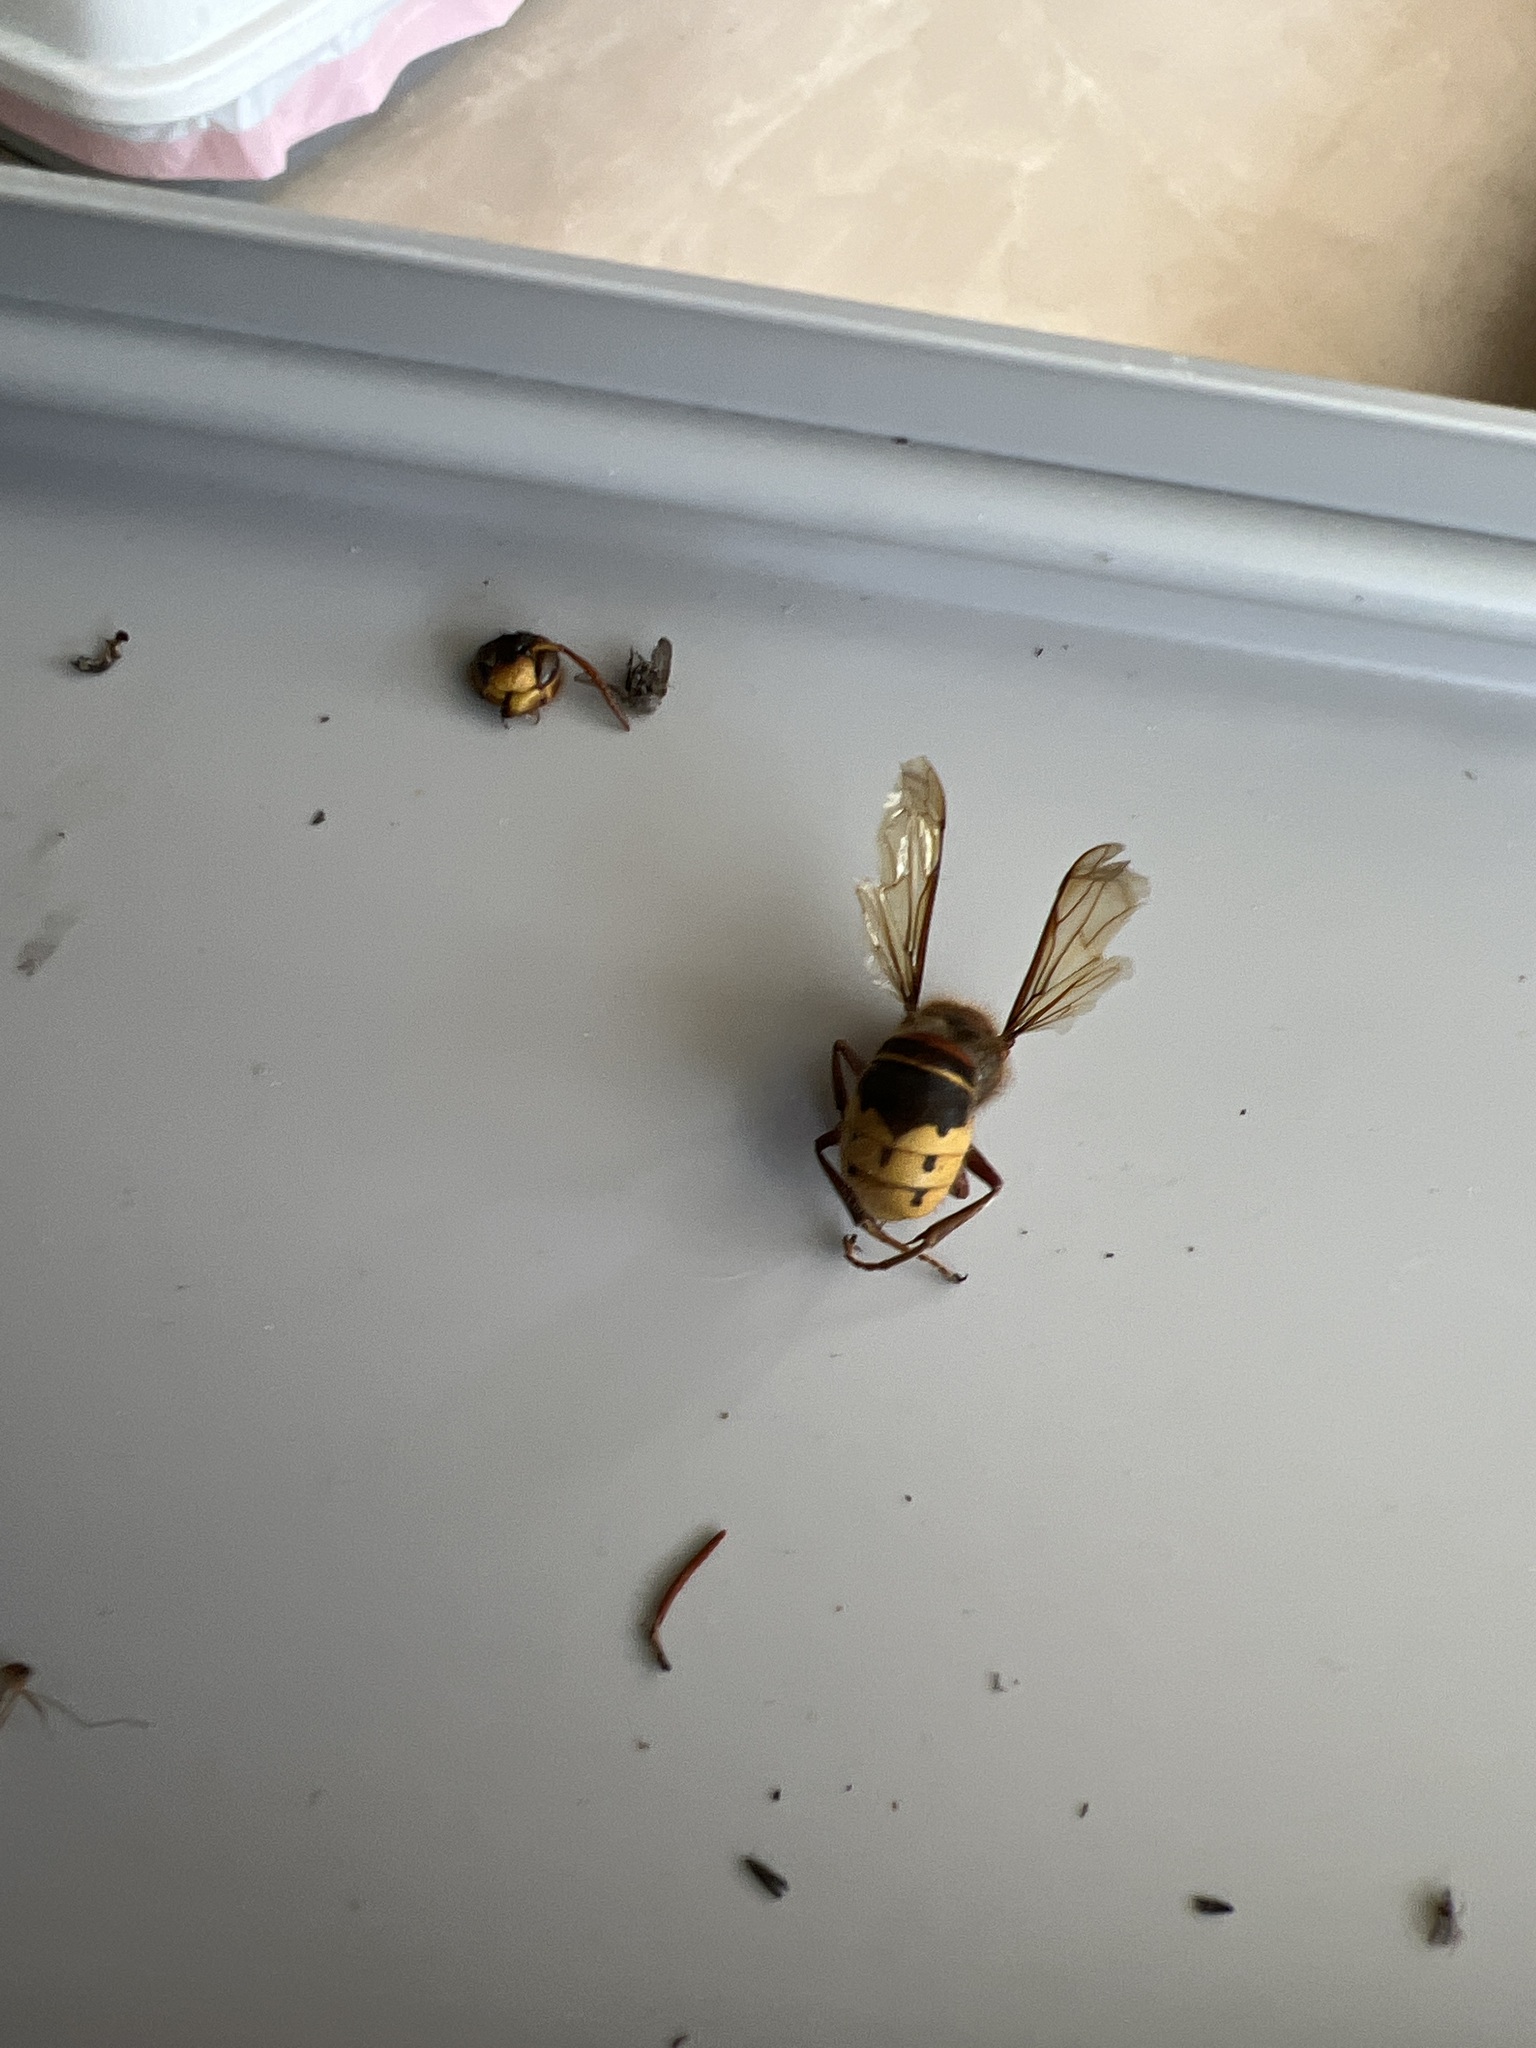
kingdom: Animalia
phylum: Arthropoda
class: Insecta
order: Hymenoptera
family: Vespidae
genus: Vespa
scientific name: Vespa crabro
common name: Hornet
